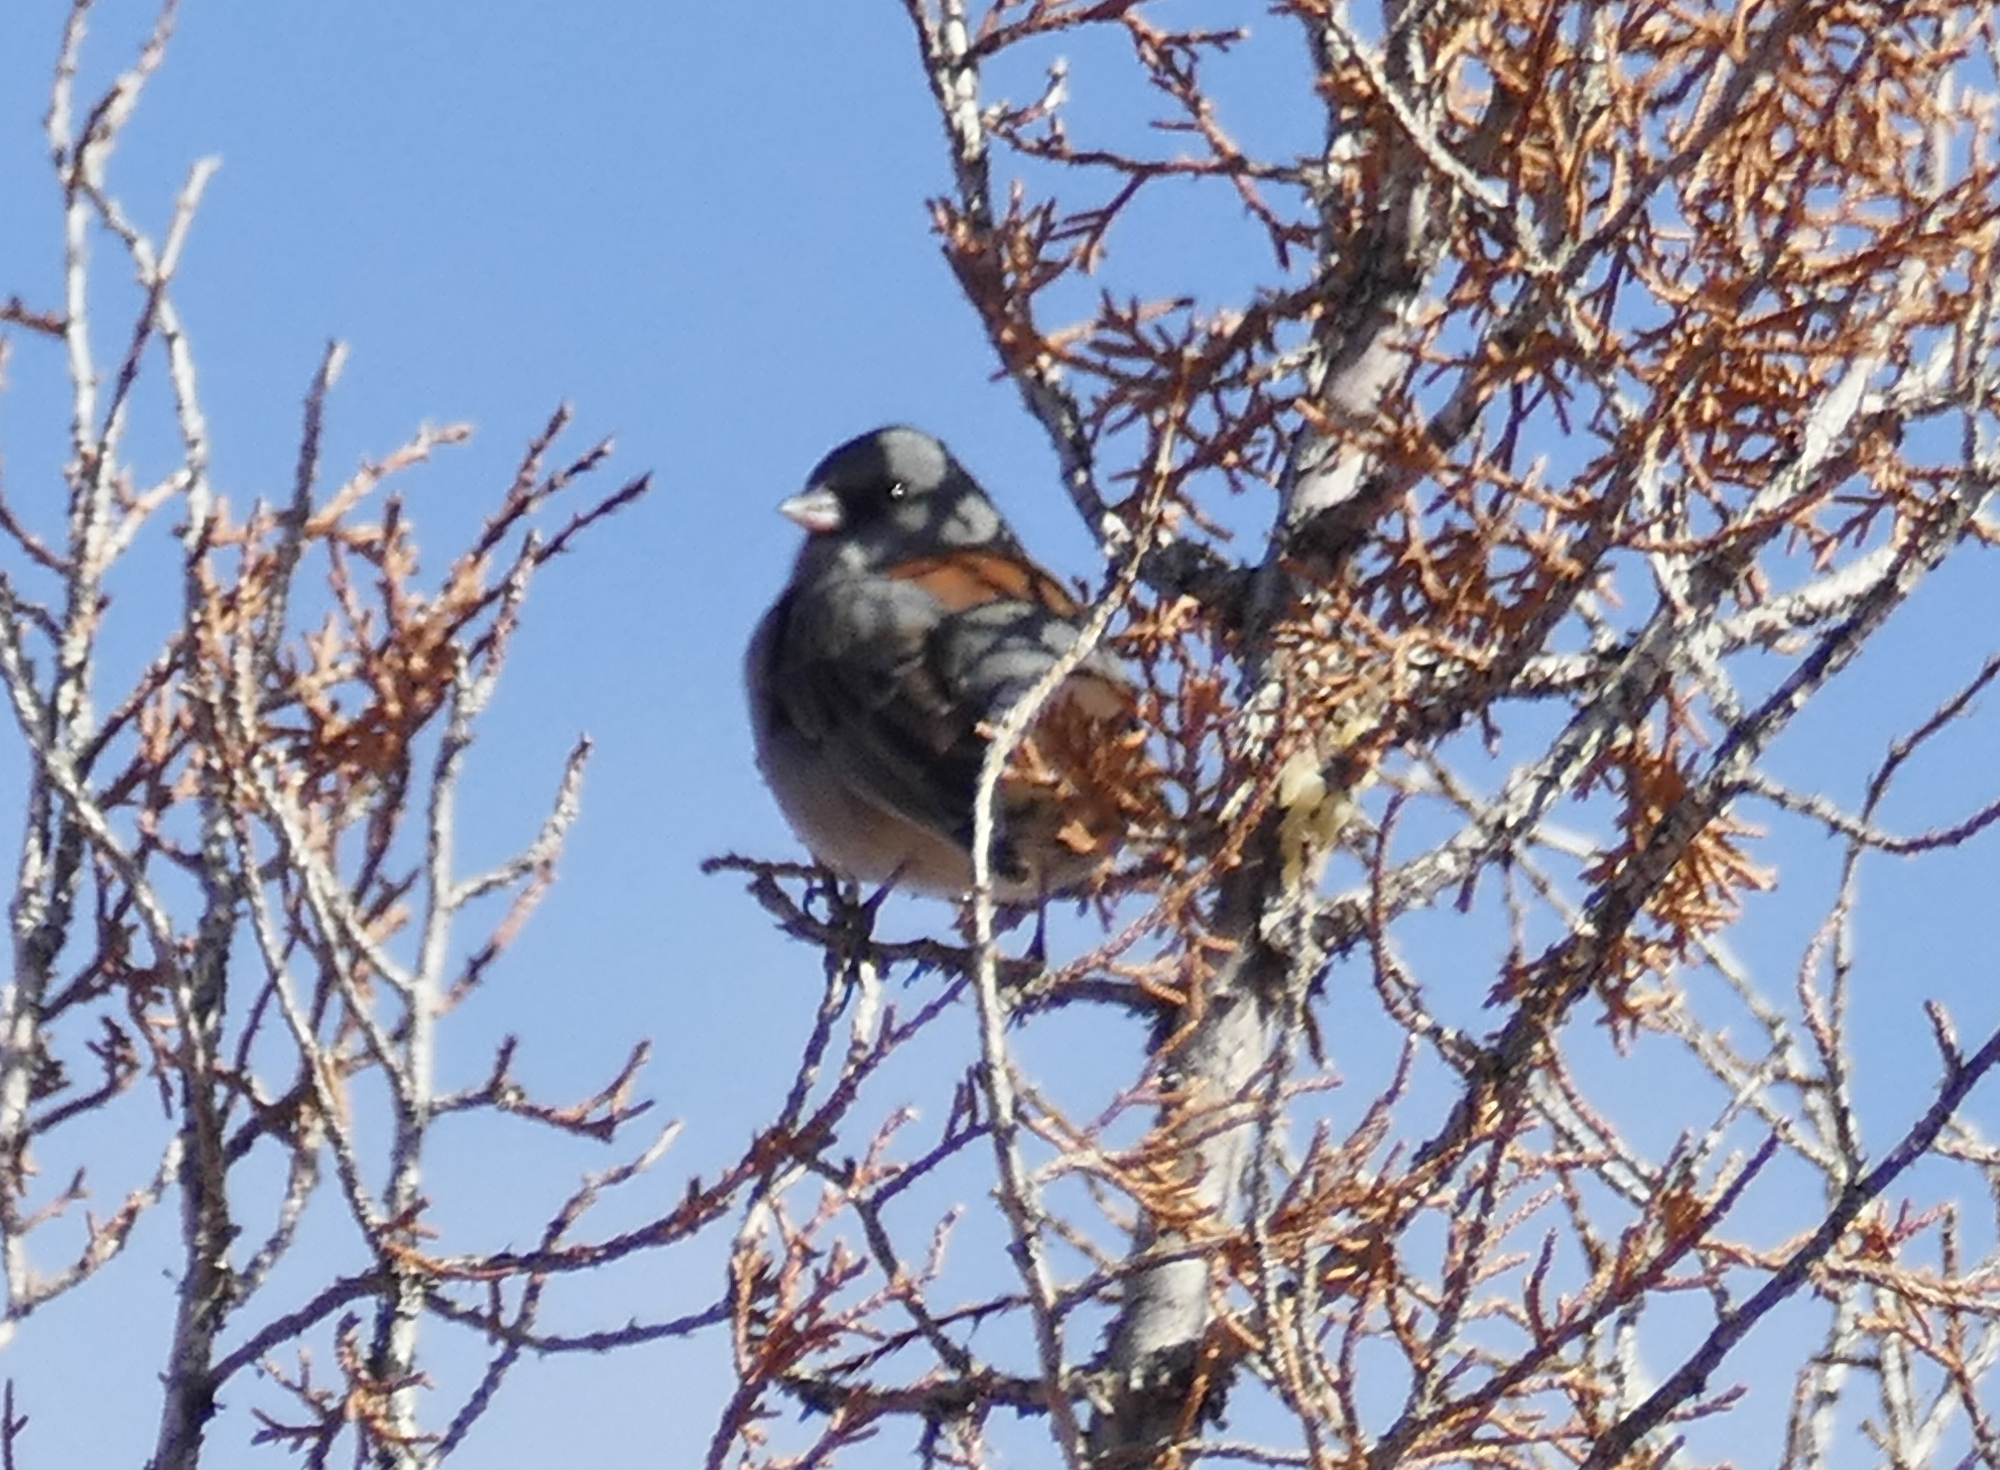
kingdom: Animalia
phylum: Chordata
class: Aves
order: Passeriformes
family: Passerellidae
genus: Junco
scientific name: Junco hyemalis
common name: Dark-eyed junco
